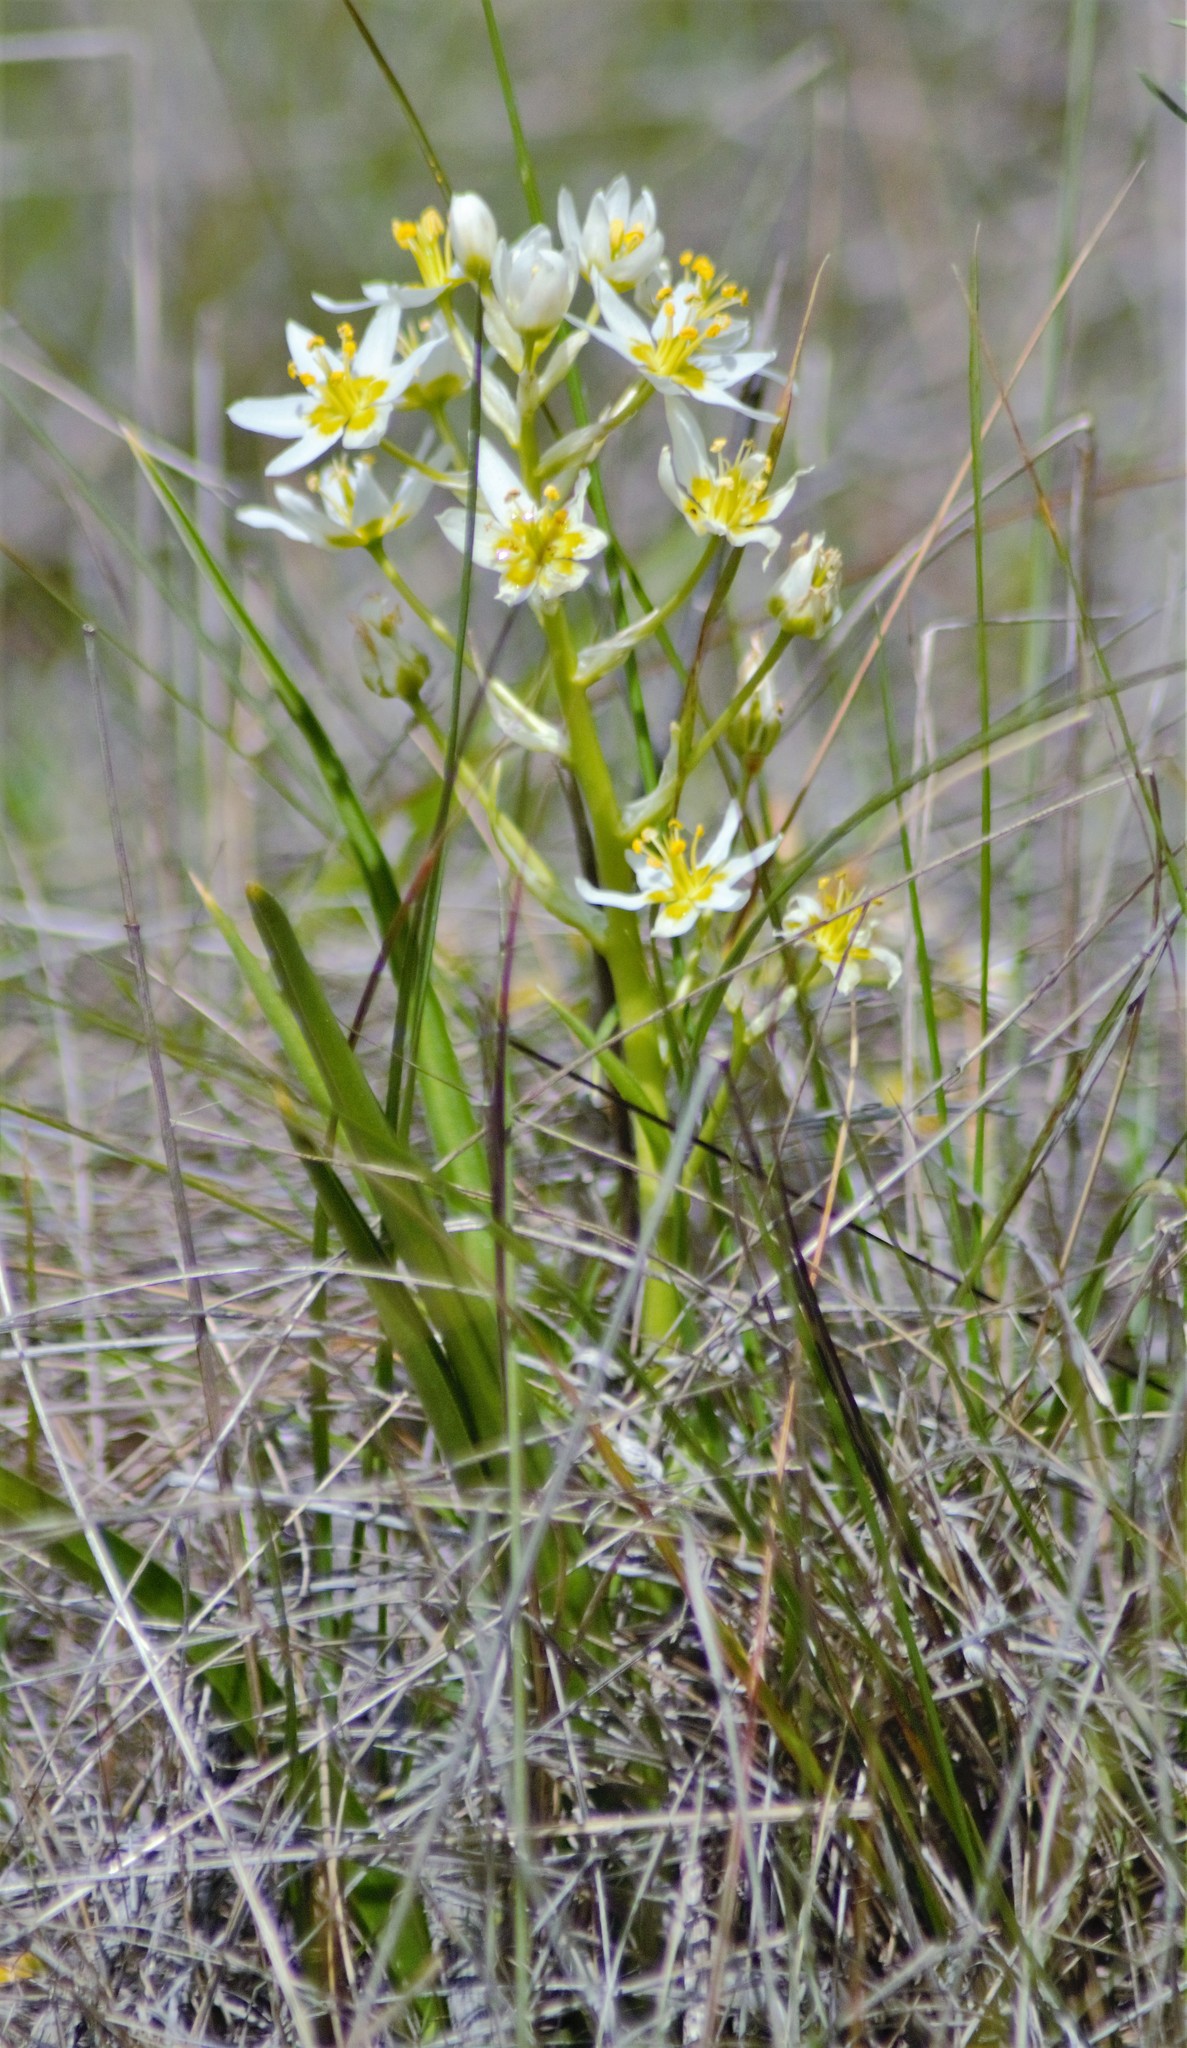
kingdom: Plantae
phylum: Tracheophyta
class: Liliopsida
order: Liliales
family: Melanthiaceae
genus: Toxicoscordion
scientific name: Toxicoscordion fremontii
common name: Fremont's death camas
